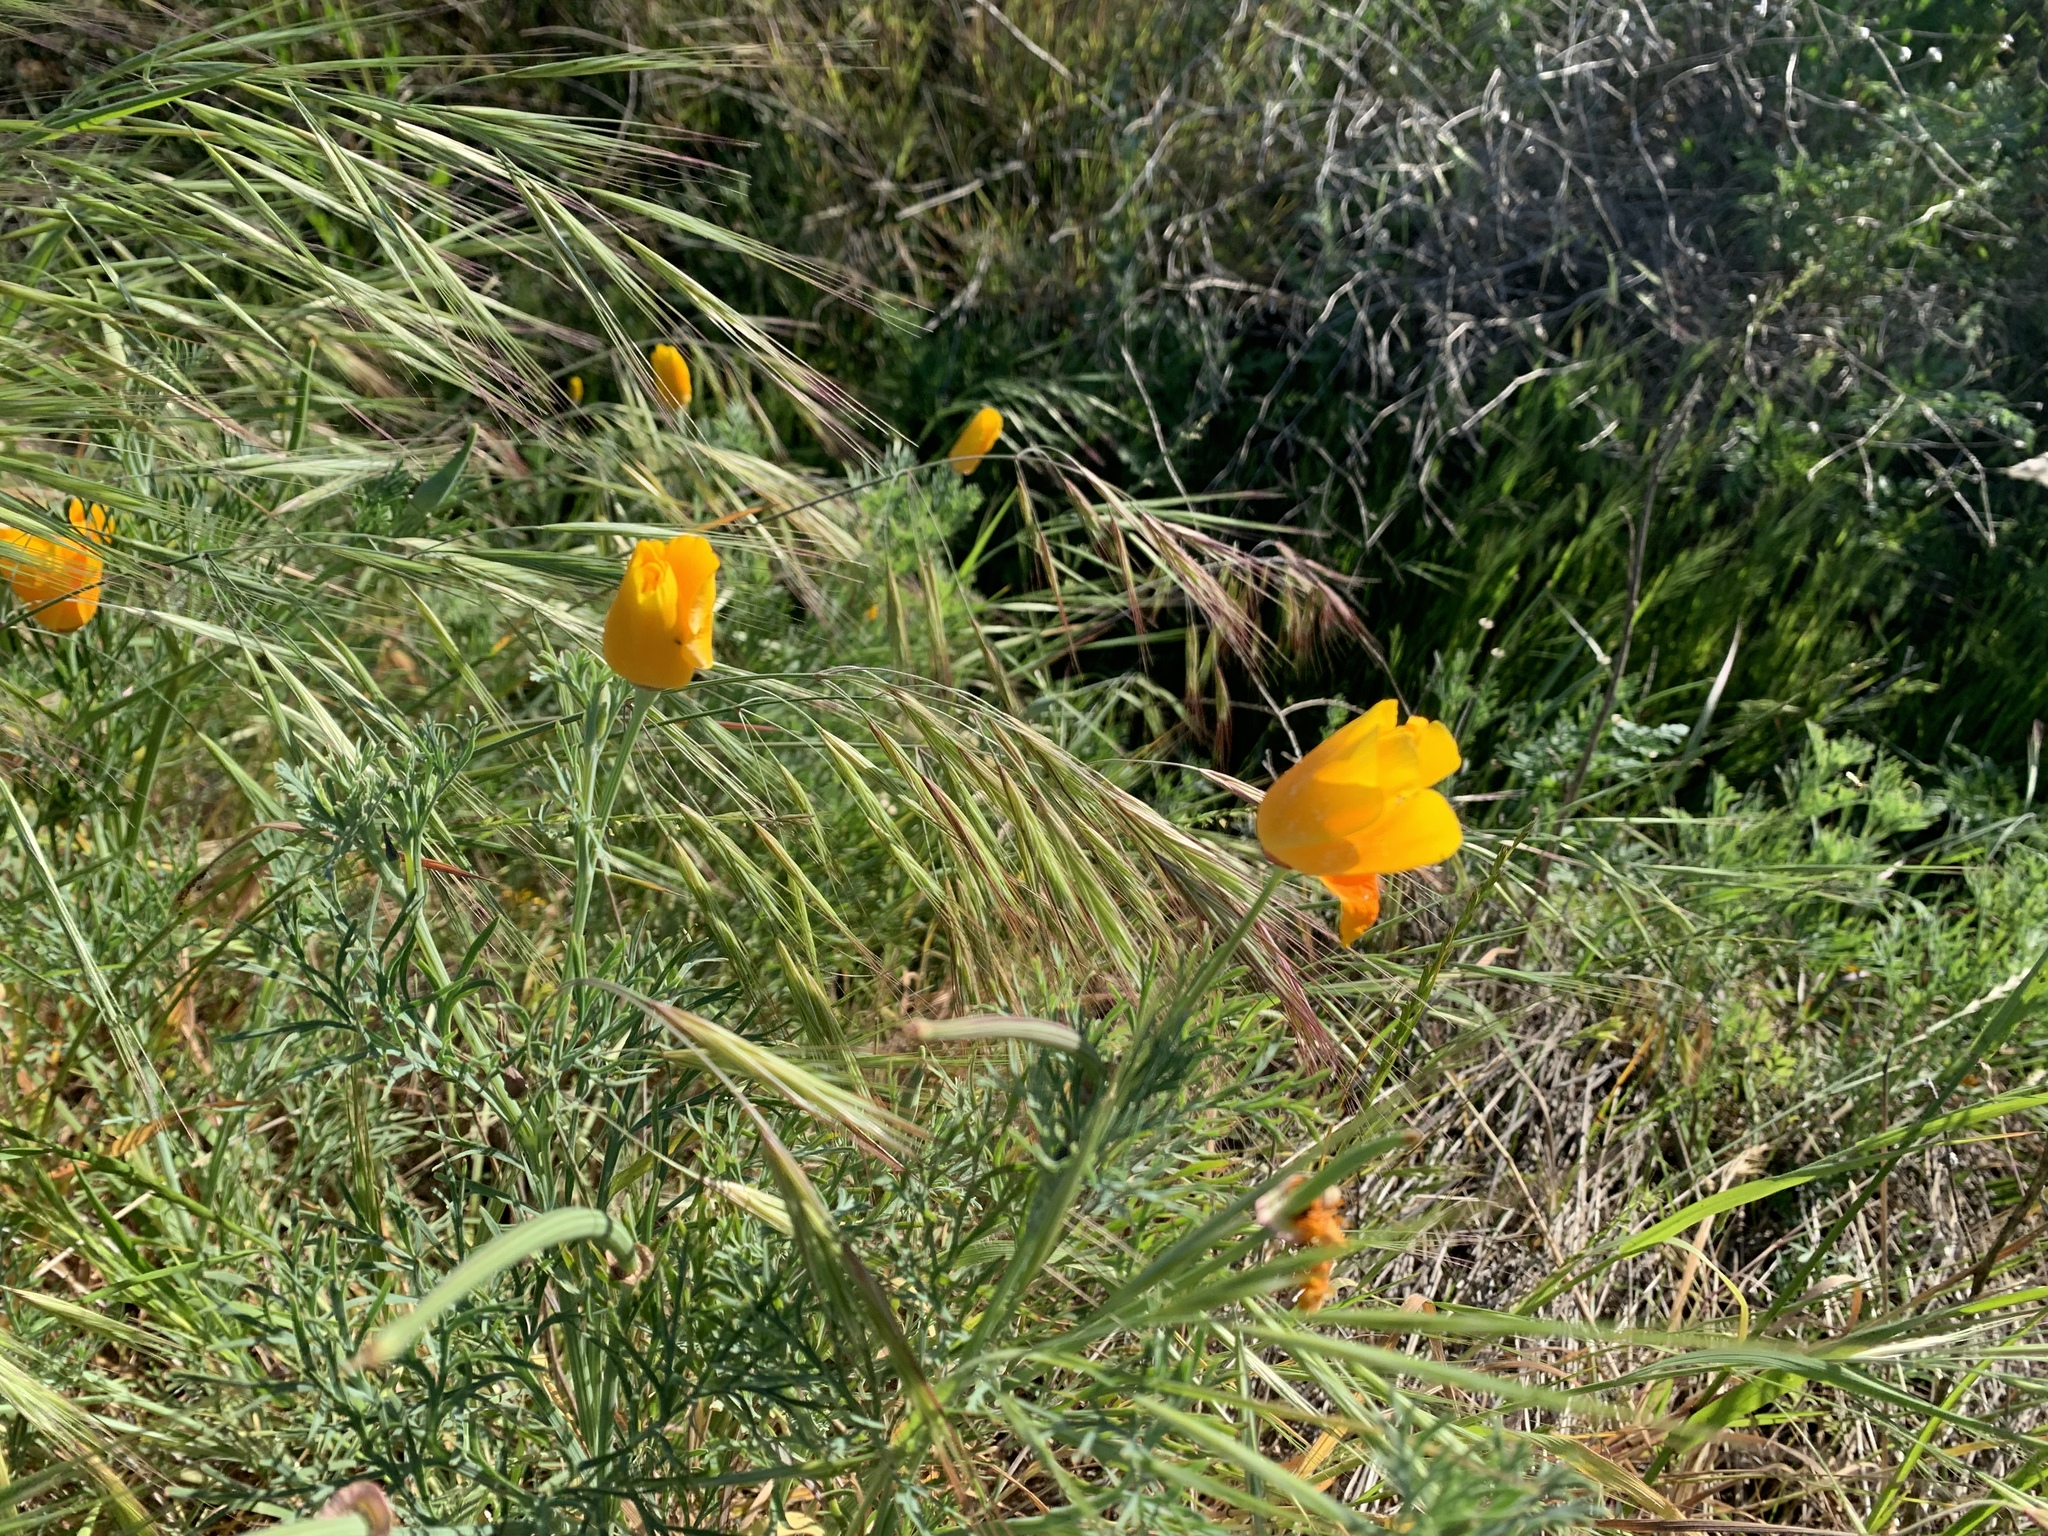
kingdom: Plantae
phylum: Tracheophyta
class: Magnoliopsida
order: Ranunculales
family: Papaveraceae
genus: Eschscholzia
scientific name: Eschscholzia californica
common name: California poppy
